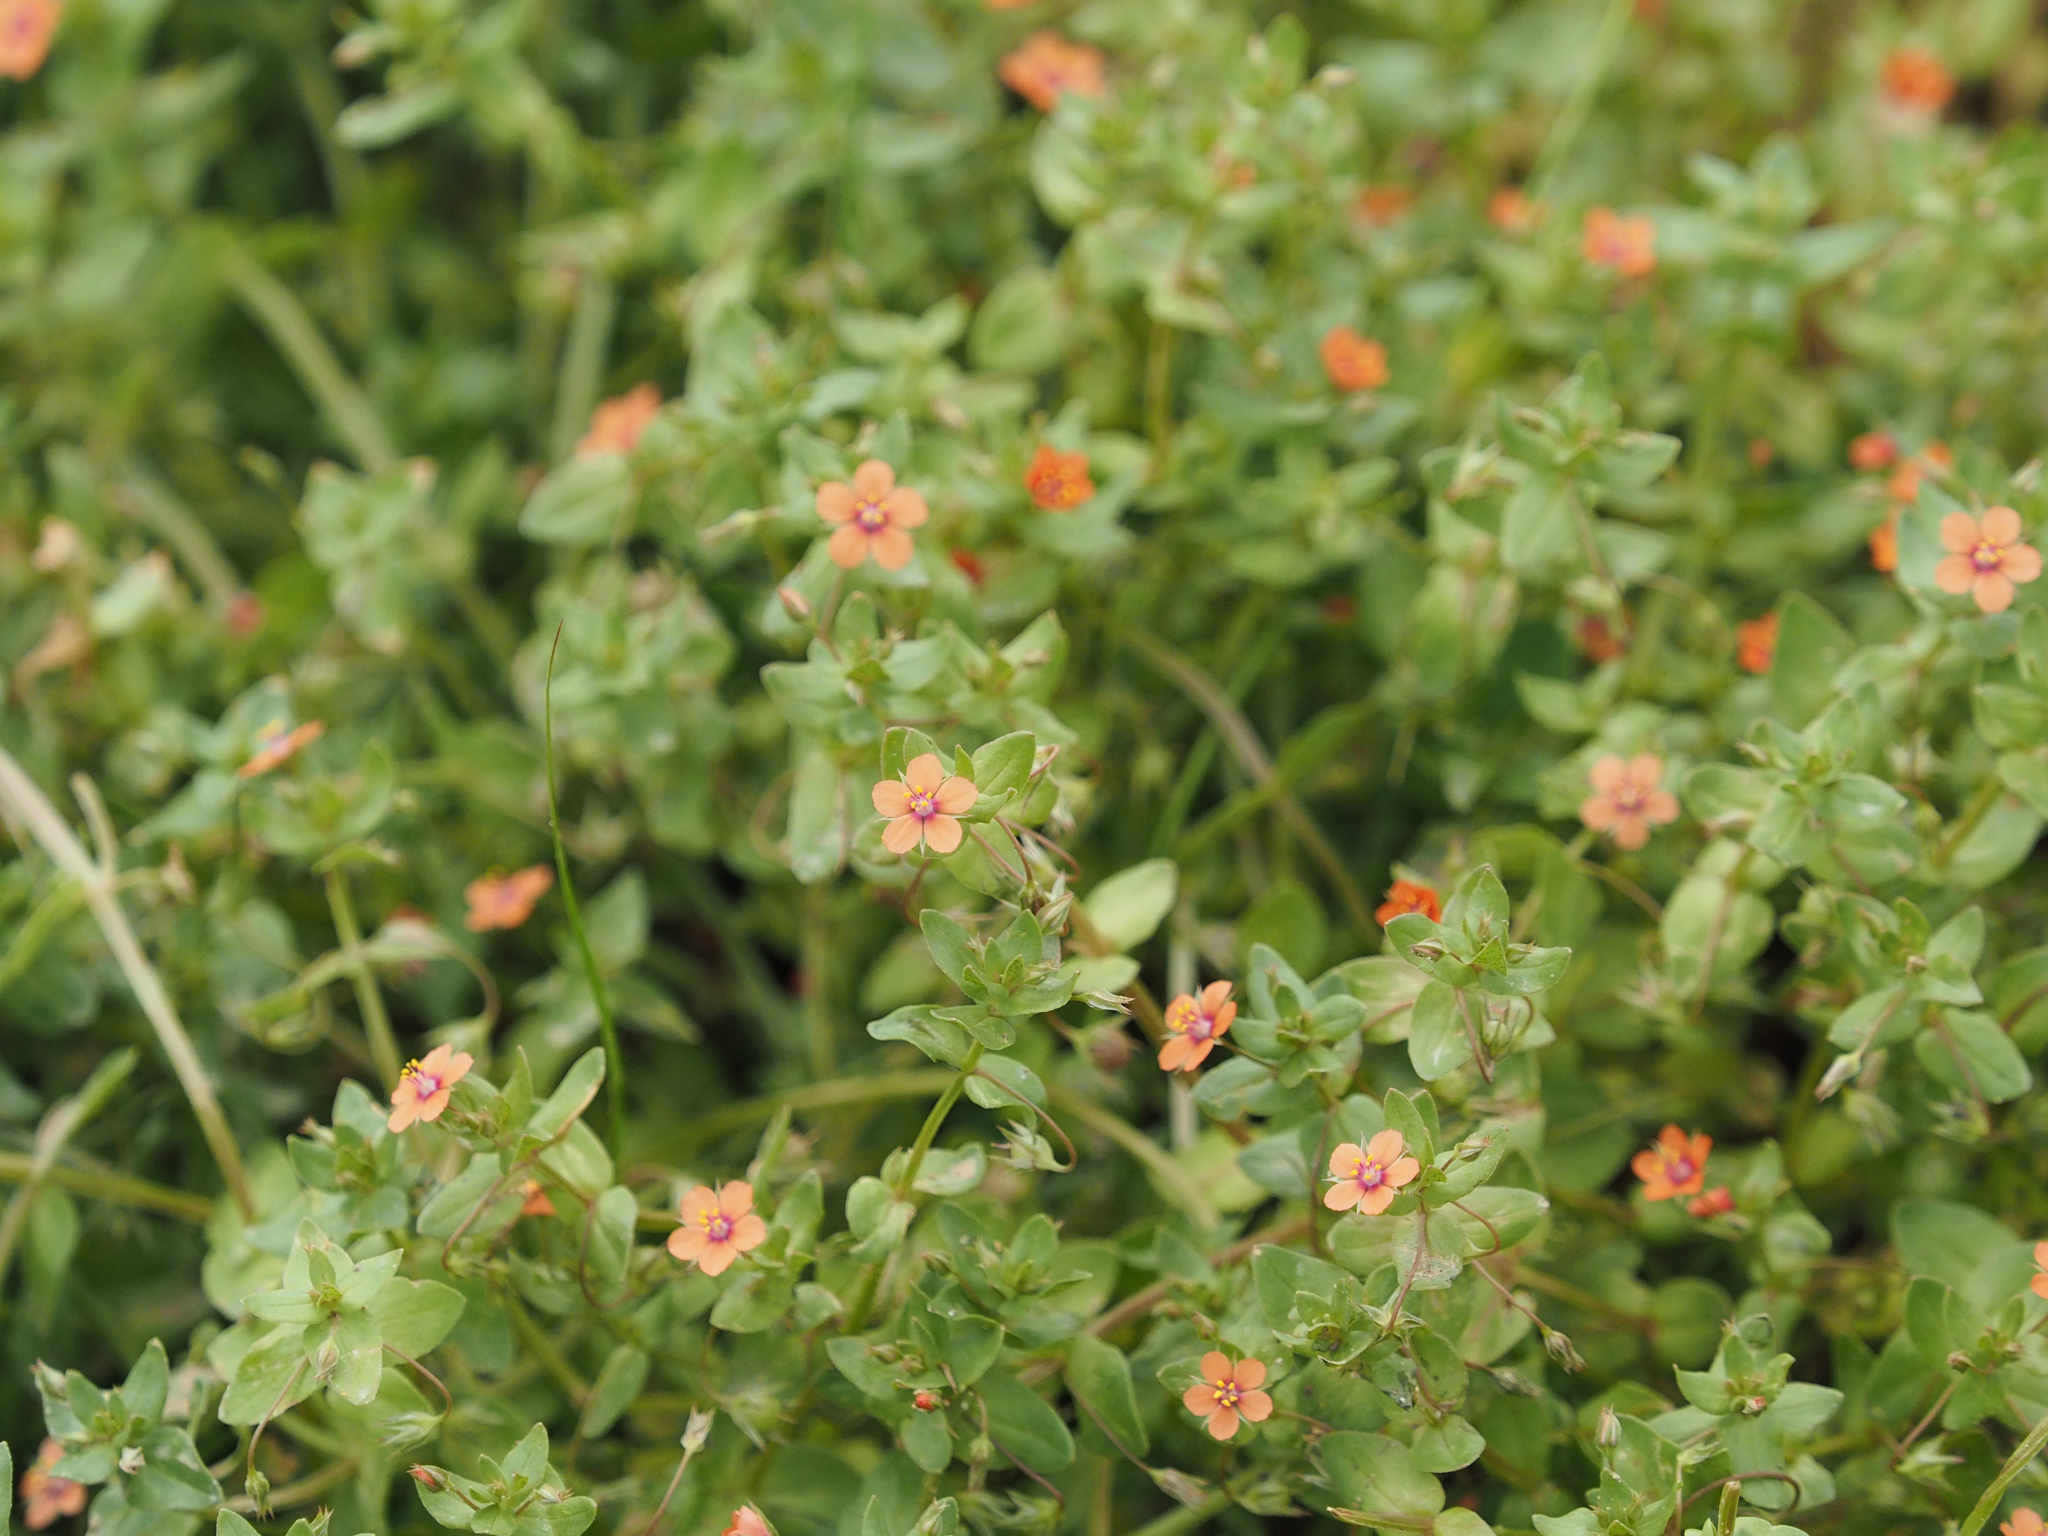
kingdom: Plantae
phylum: Tracheophyta
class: Magnoliopsida
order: Ericales
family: Primulaceae
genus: Lysimachia
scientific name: Lysimachia arvensis
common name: Scarlet pimpernel
